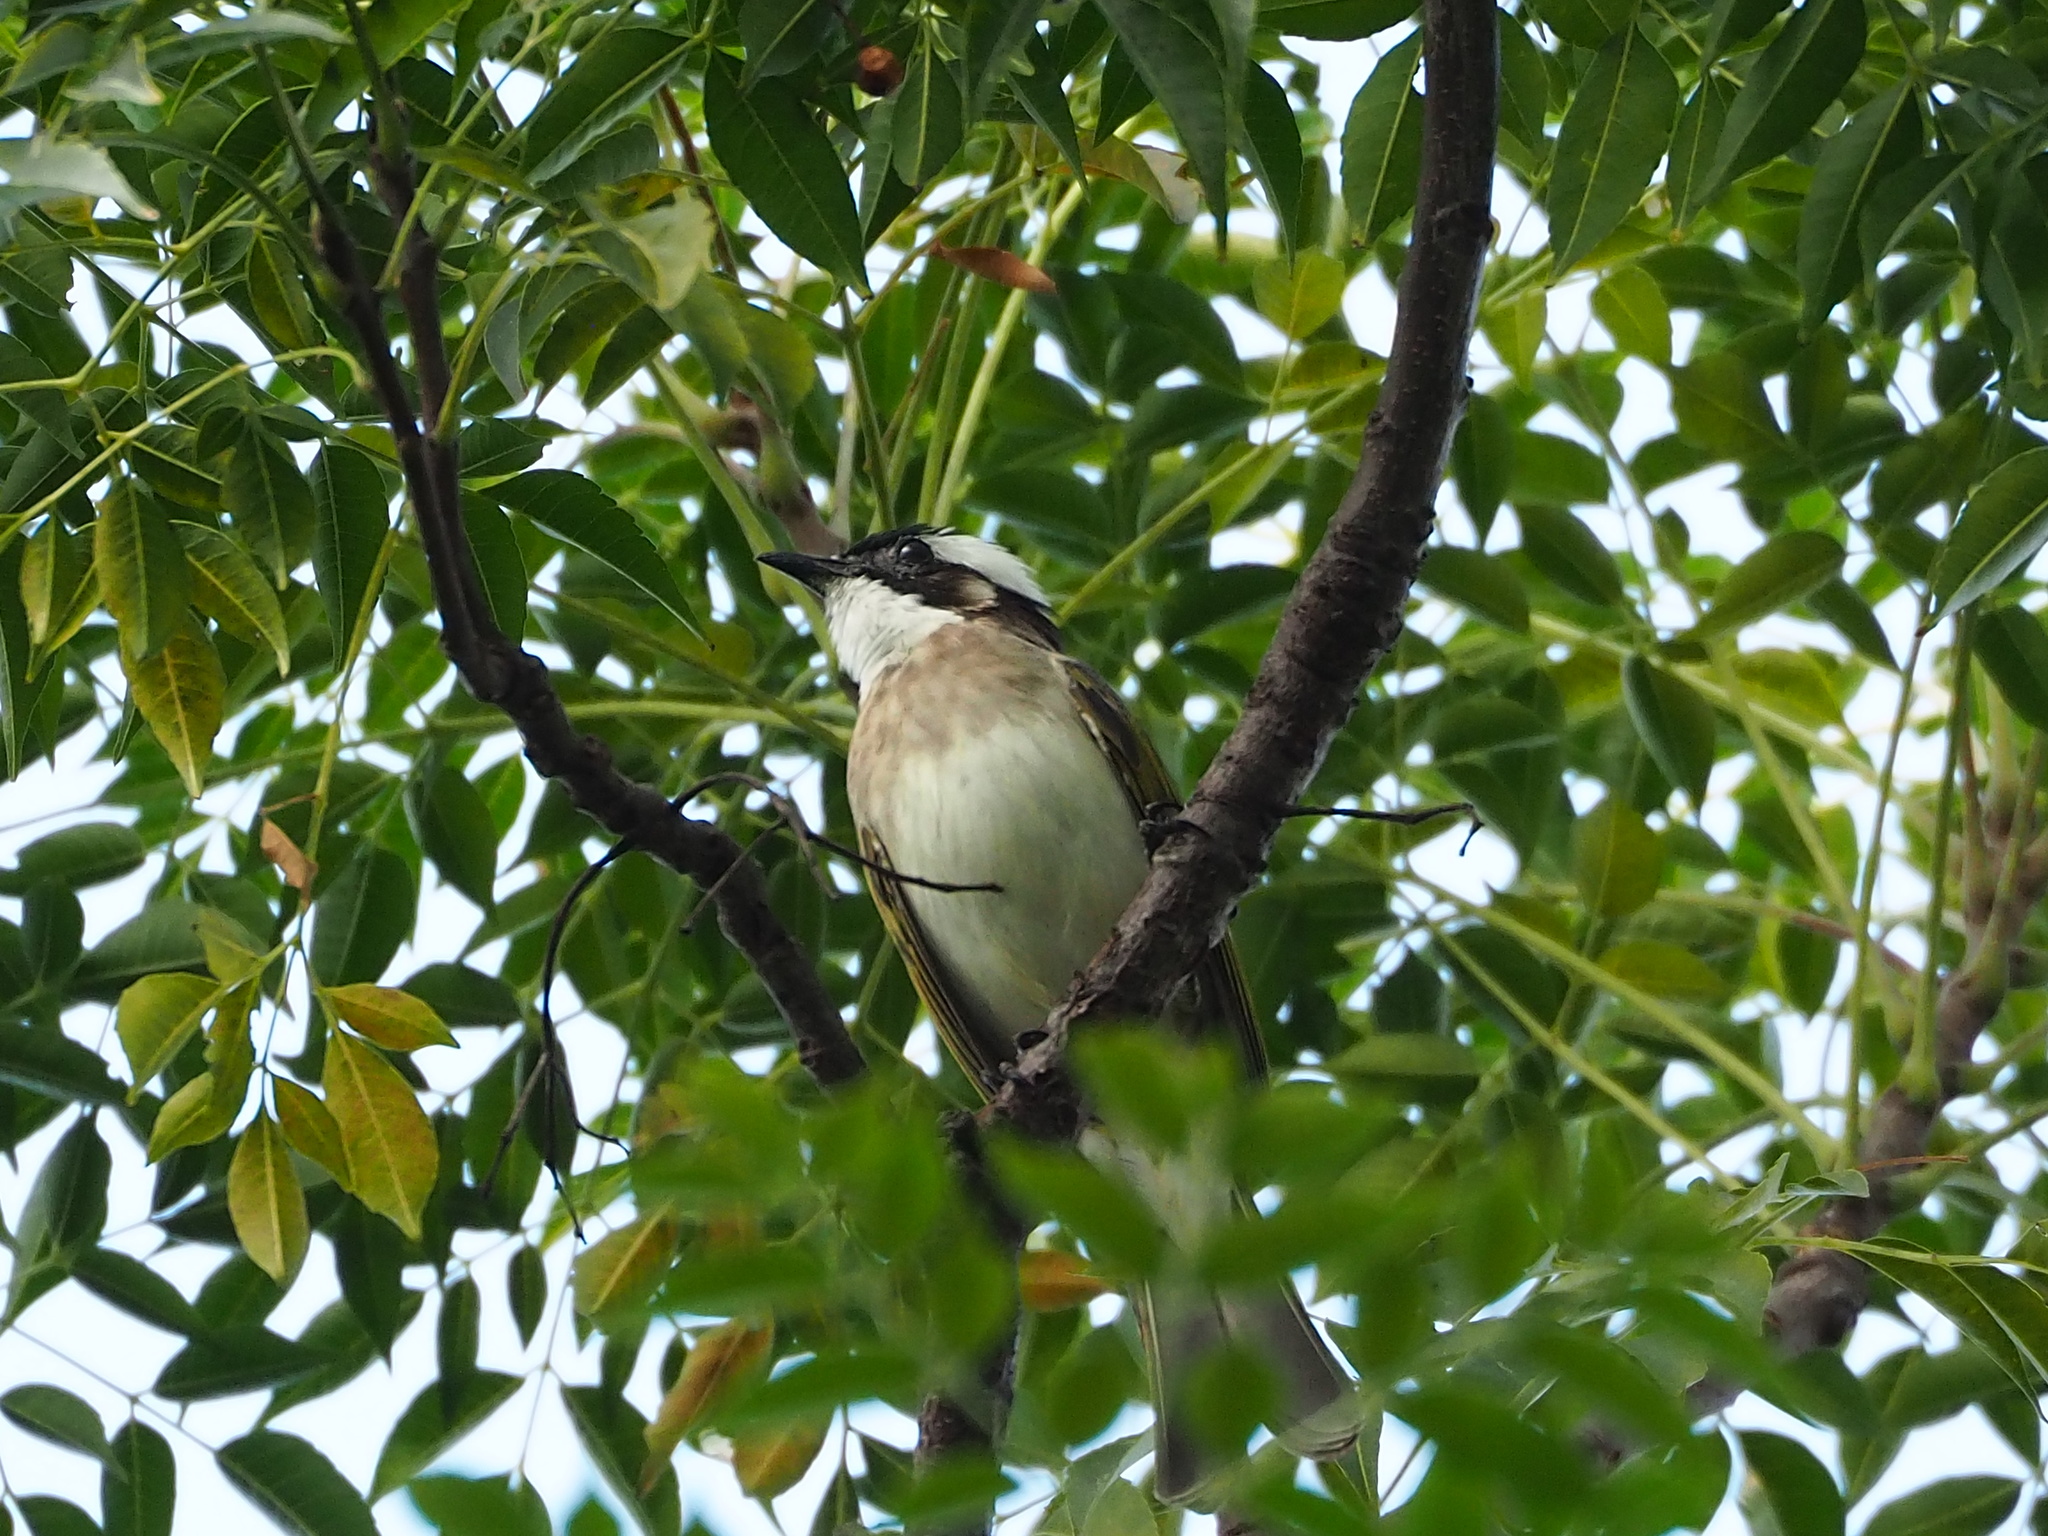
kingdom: Animalia
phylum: Chordata
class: Aves
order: Passeriformes
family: Pycnonotidae
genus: Pycnonotus
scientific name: Pycnonotus sinensis
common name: Light-vented bulbul
